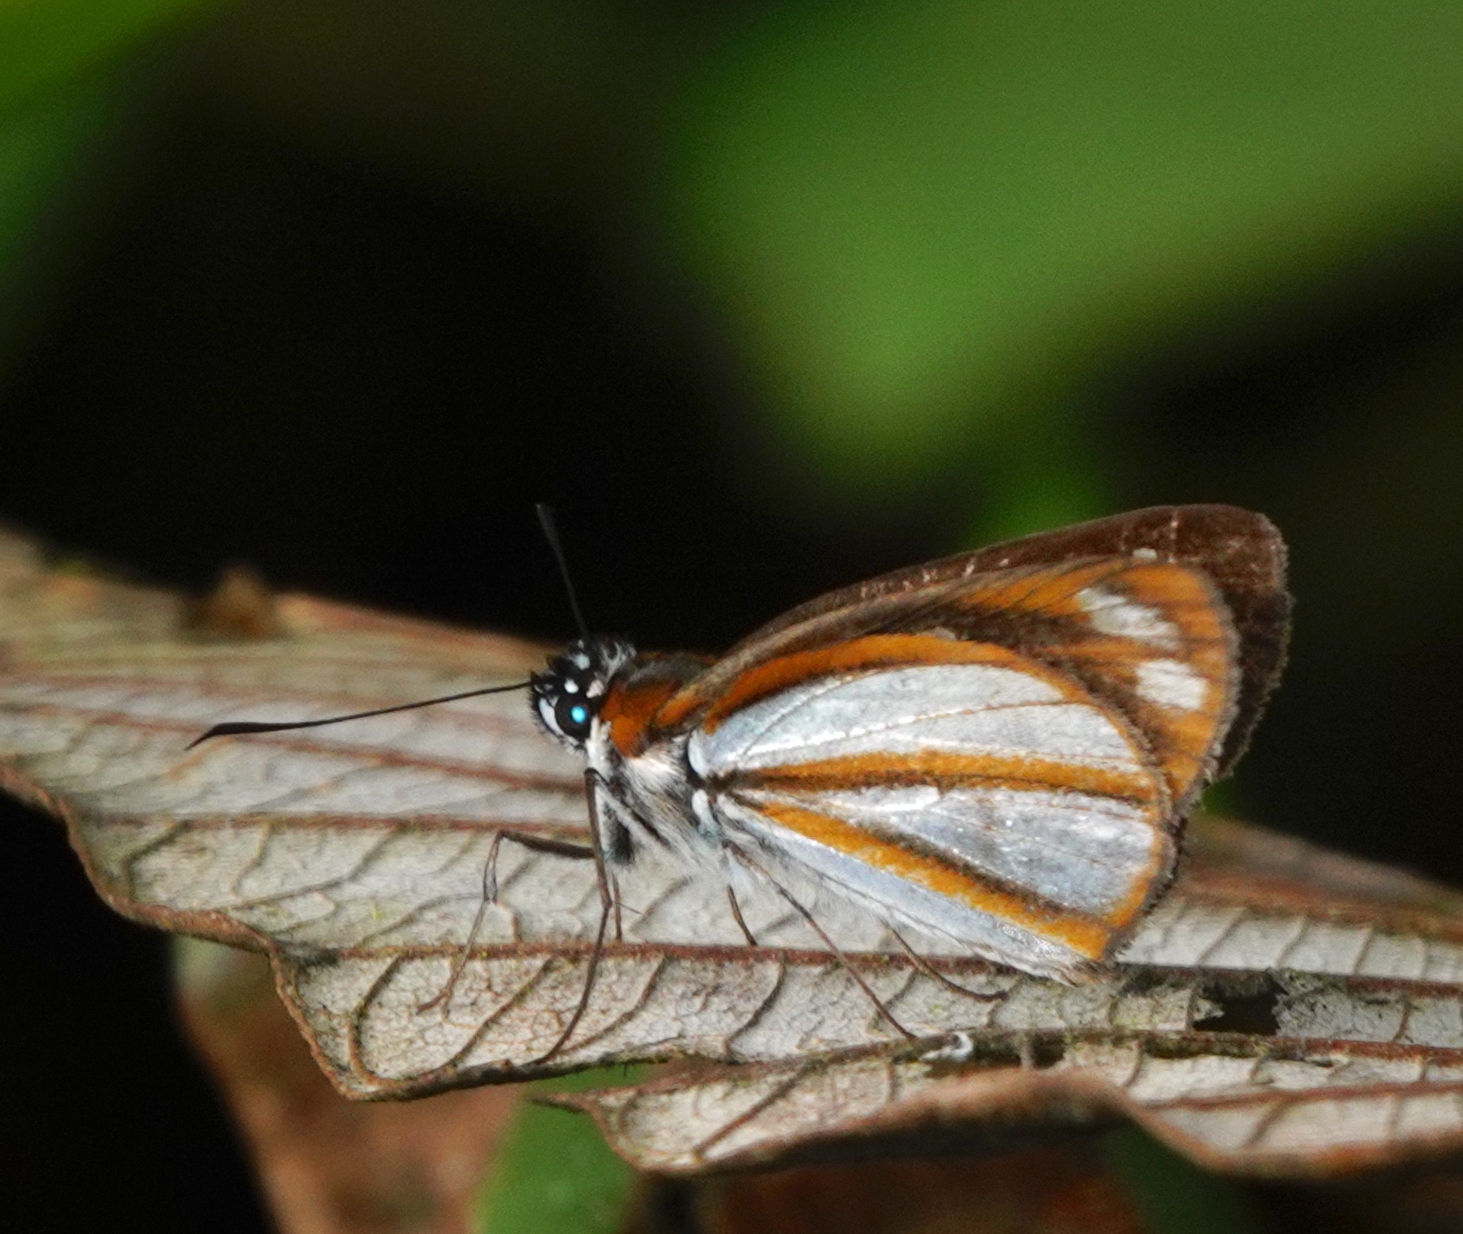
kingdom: Animalia
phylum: Arthropoda
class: Insecta
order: Lepidoptera
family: Hesperiidae
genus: Corra
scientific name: Corra
